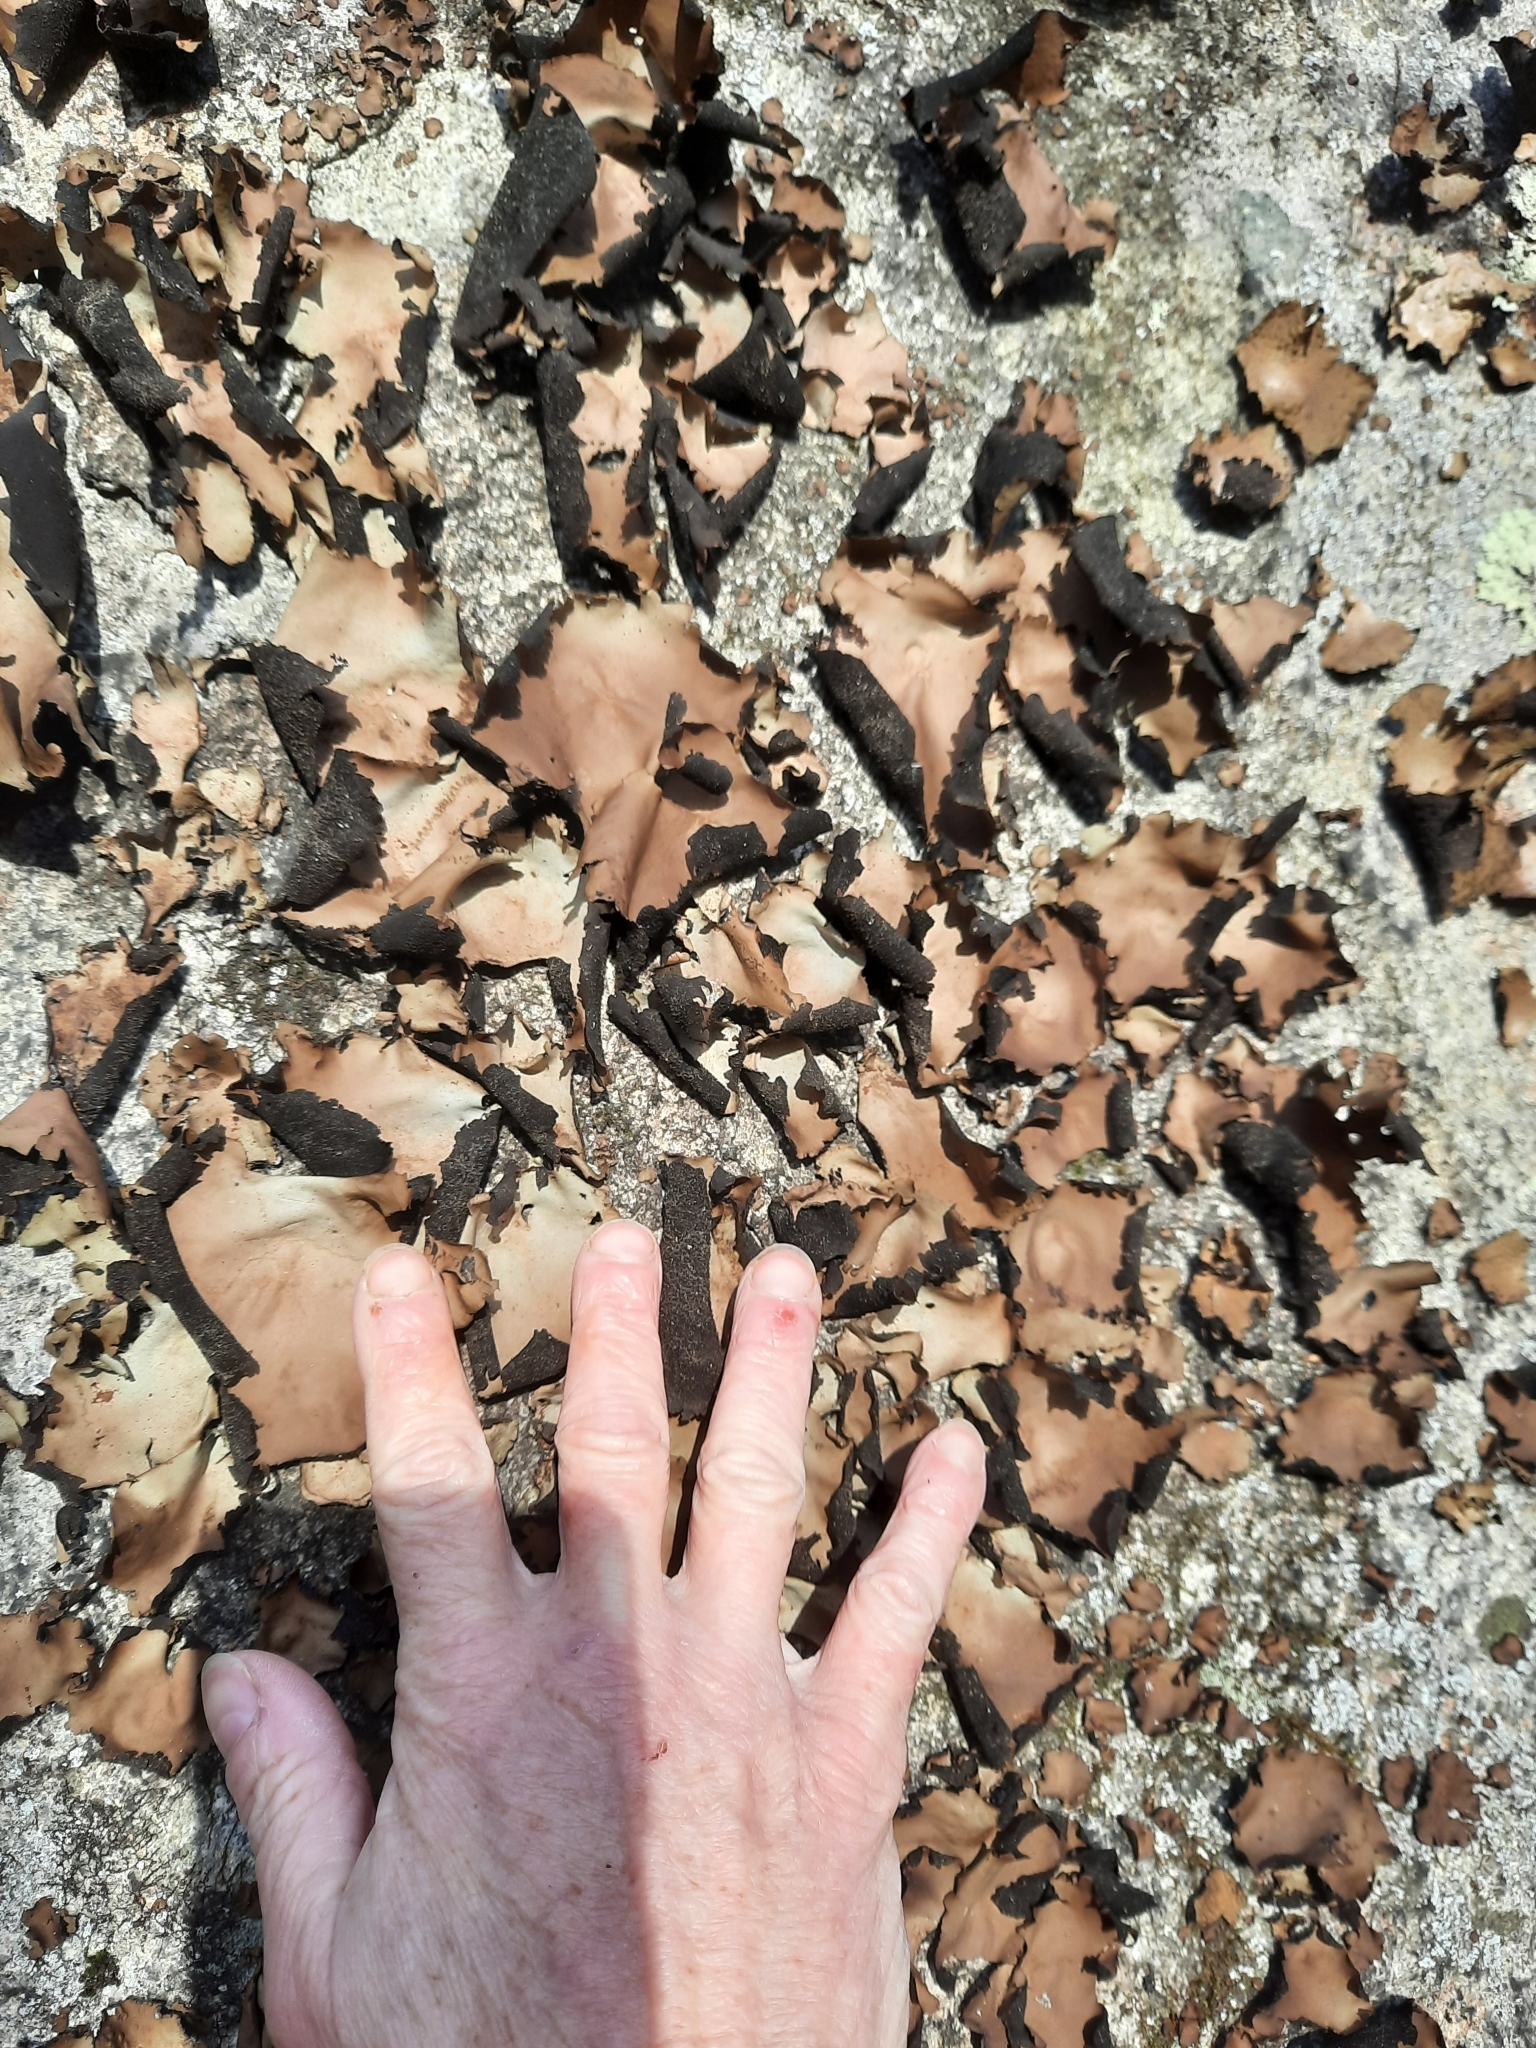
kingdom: Fungi
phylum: Ascomycota
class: Lecanoromycetes
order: Umbilicariales
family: Umbilicariaceae
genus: Umbilicaria
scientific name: Umbilicaria mammulata
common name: Smooth rock tripe
